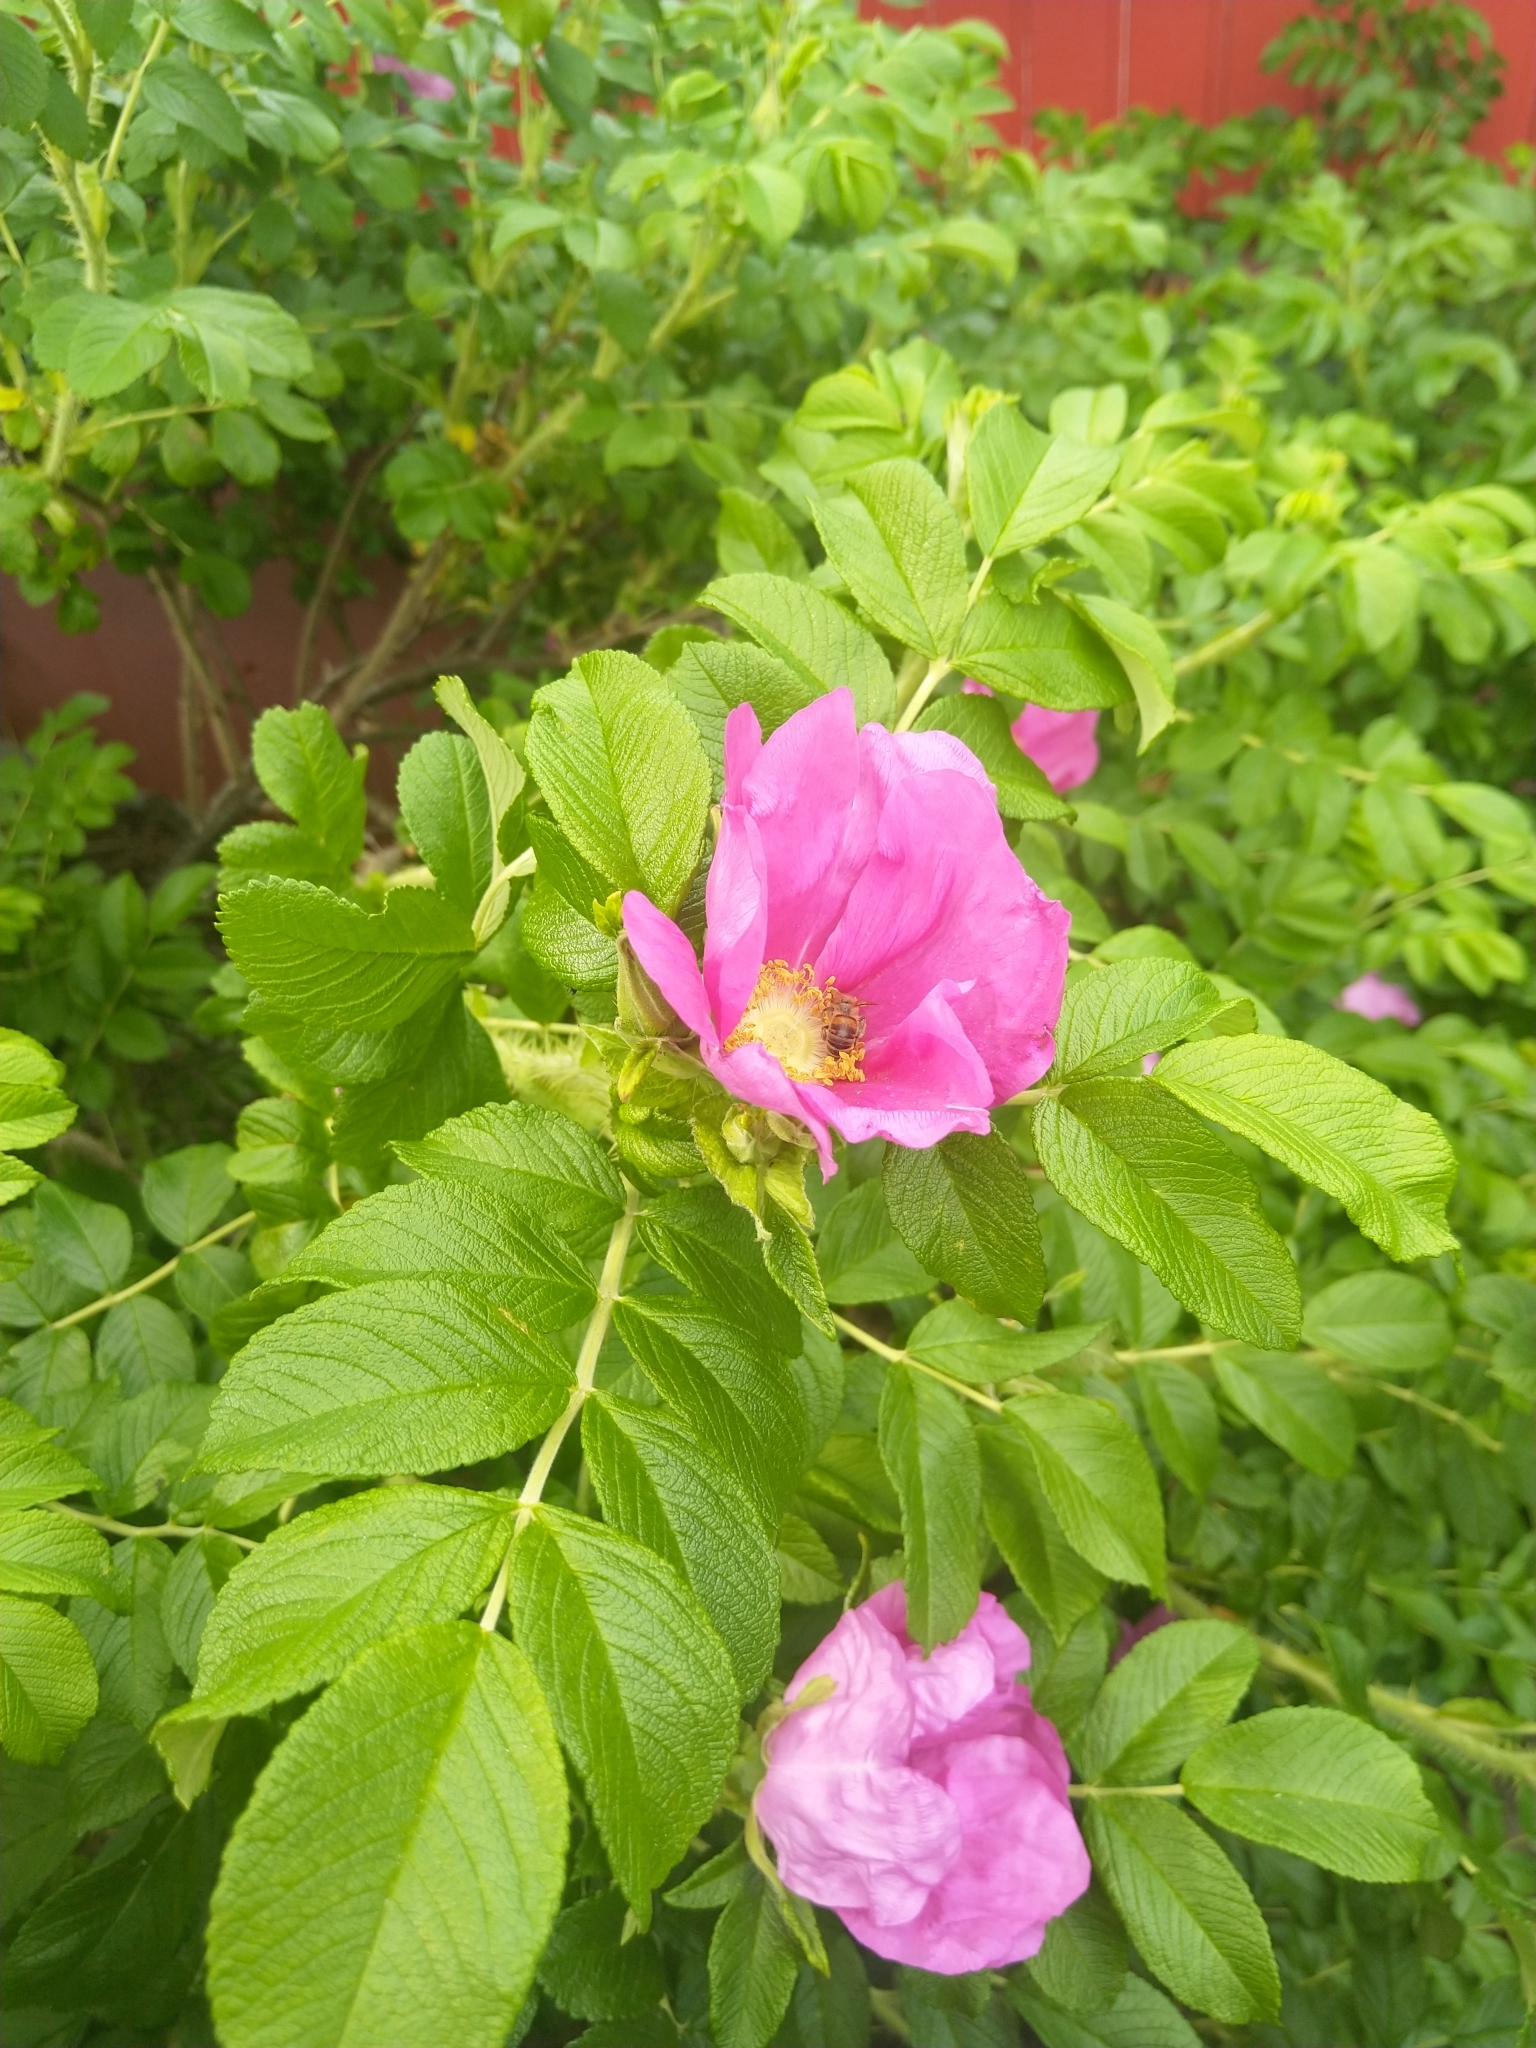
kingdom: Plantae
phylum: Tracheophyta
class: Magnoliopsida
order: Rosales
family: Rosaceae
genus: Rosa
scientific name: Rosa rugosa
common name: Japanese rose
